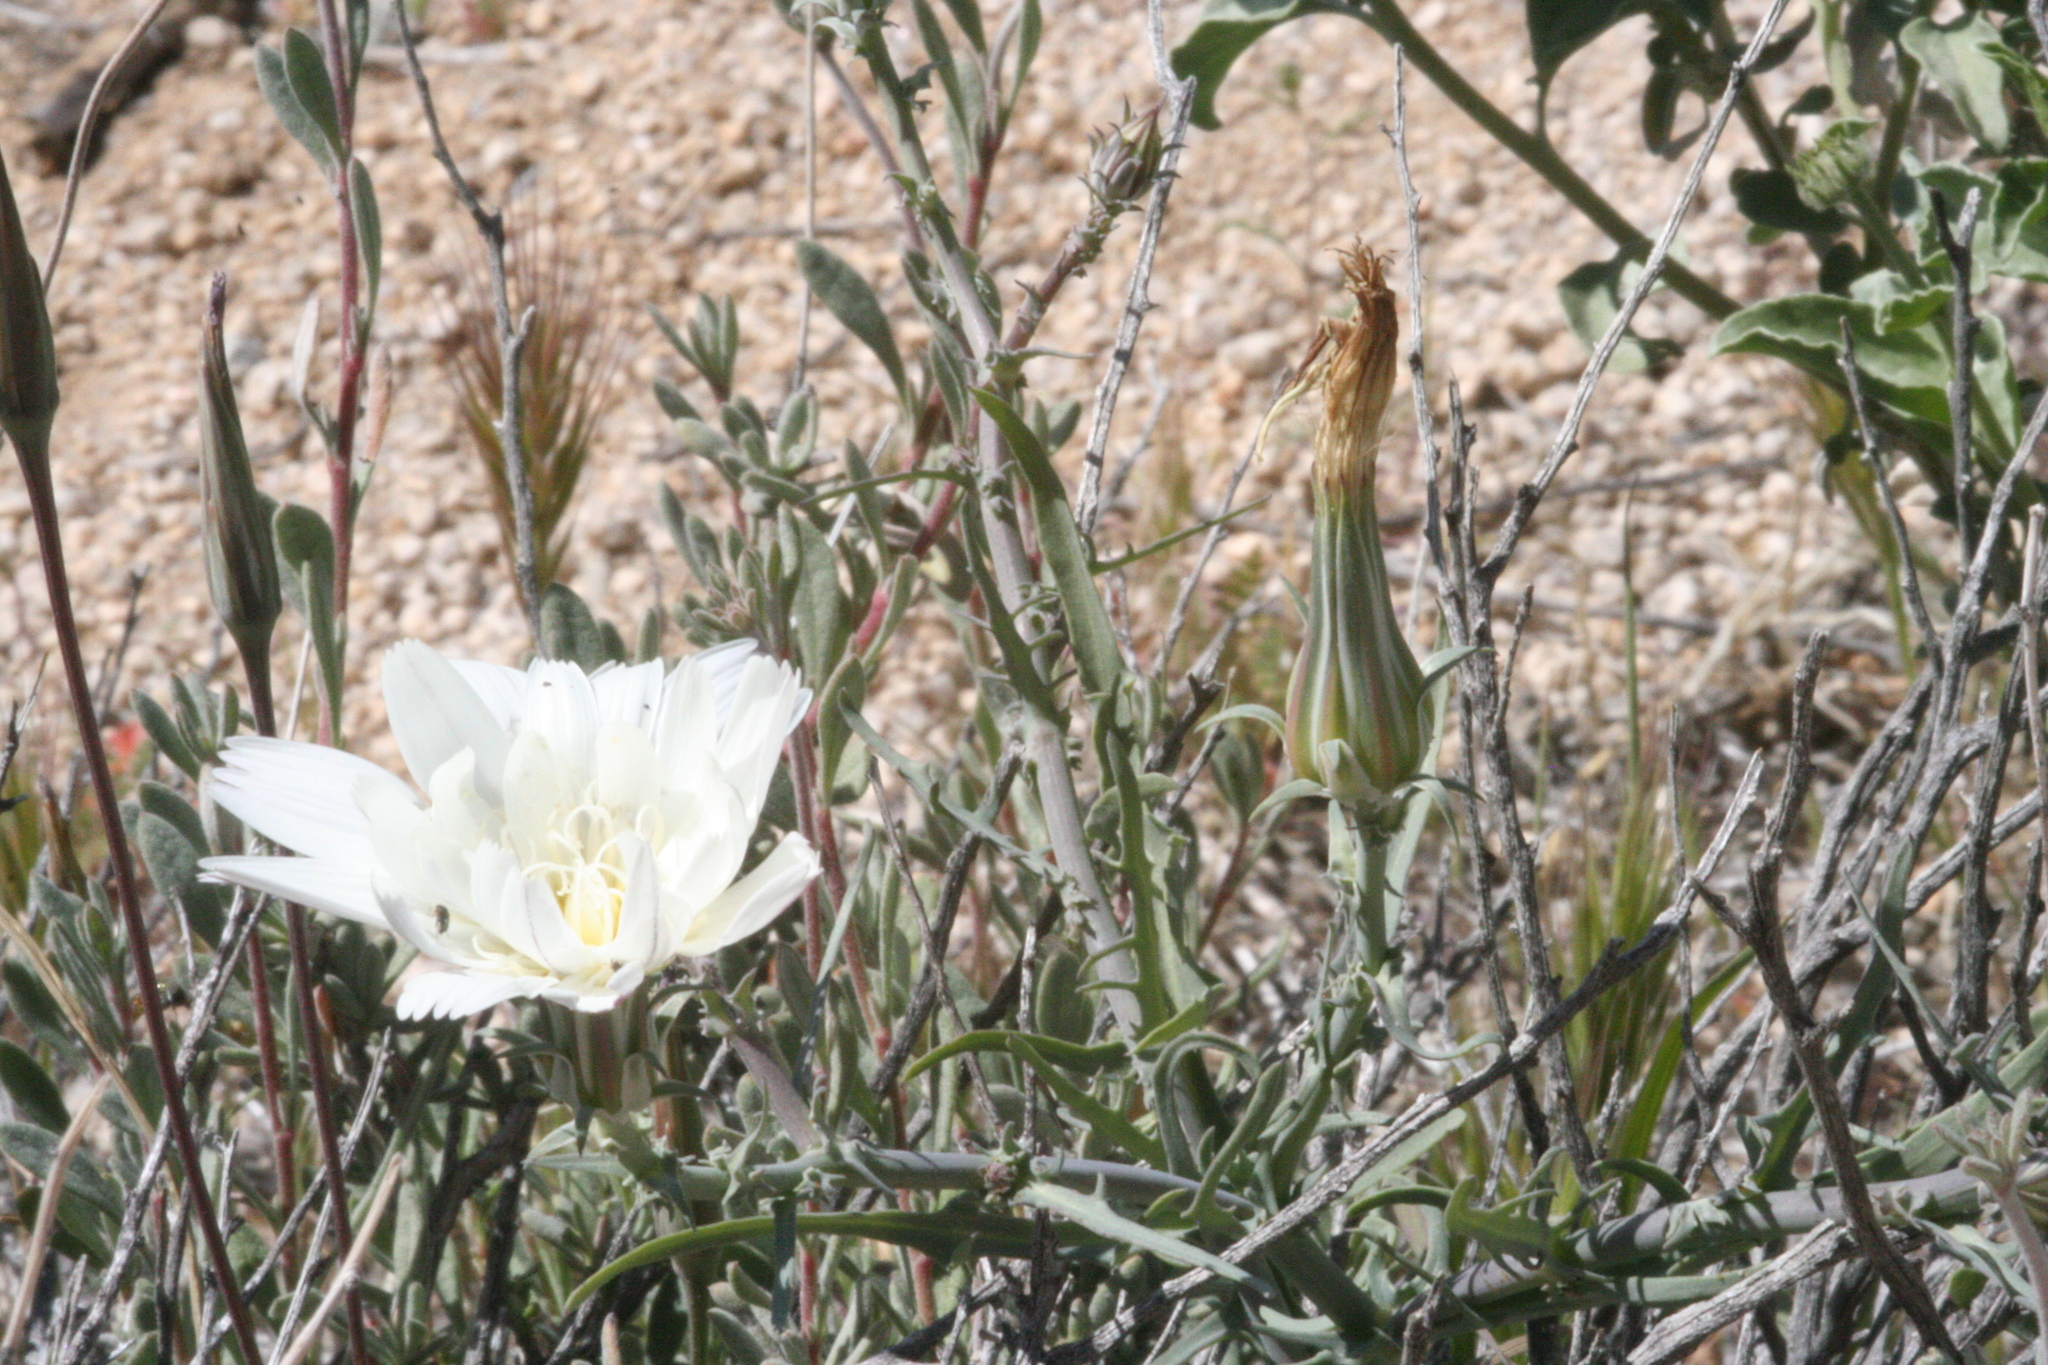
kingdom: Plantae
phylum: Tracheophyta
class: Magnoliopsida
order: Asterales
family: Asteraceae
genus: Rafinesquia
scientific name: Rafinesquia neomexicana
